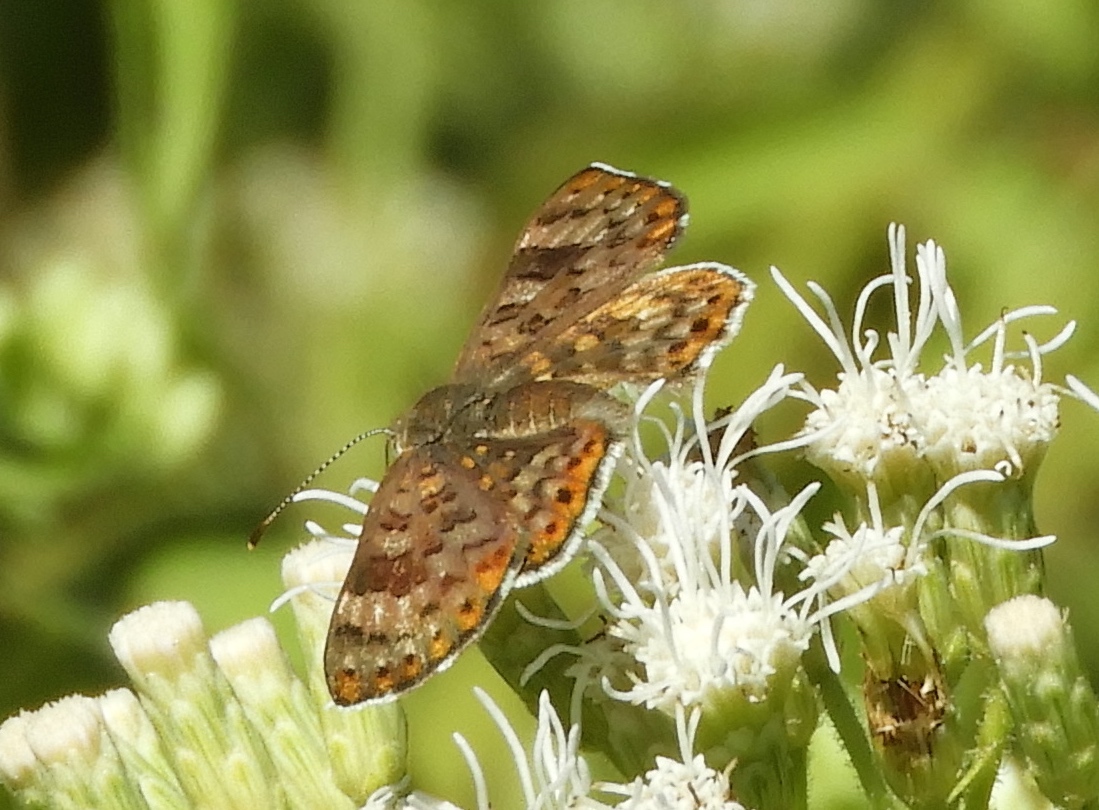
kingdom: Animalia
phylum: Arthropoda
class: Insecta
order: Lepidoptera
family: Riodinidae
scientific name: Riodinidae
